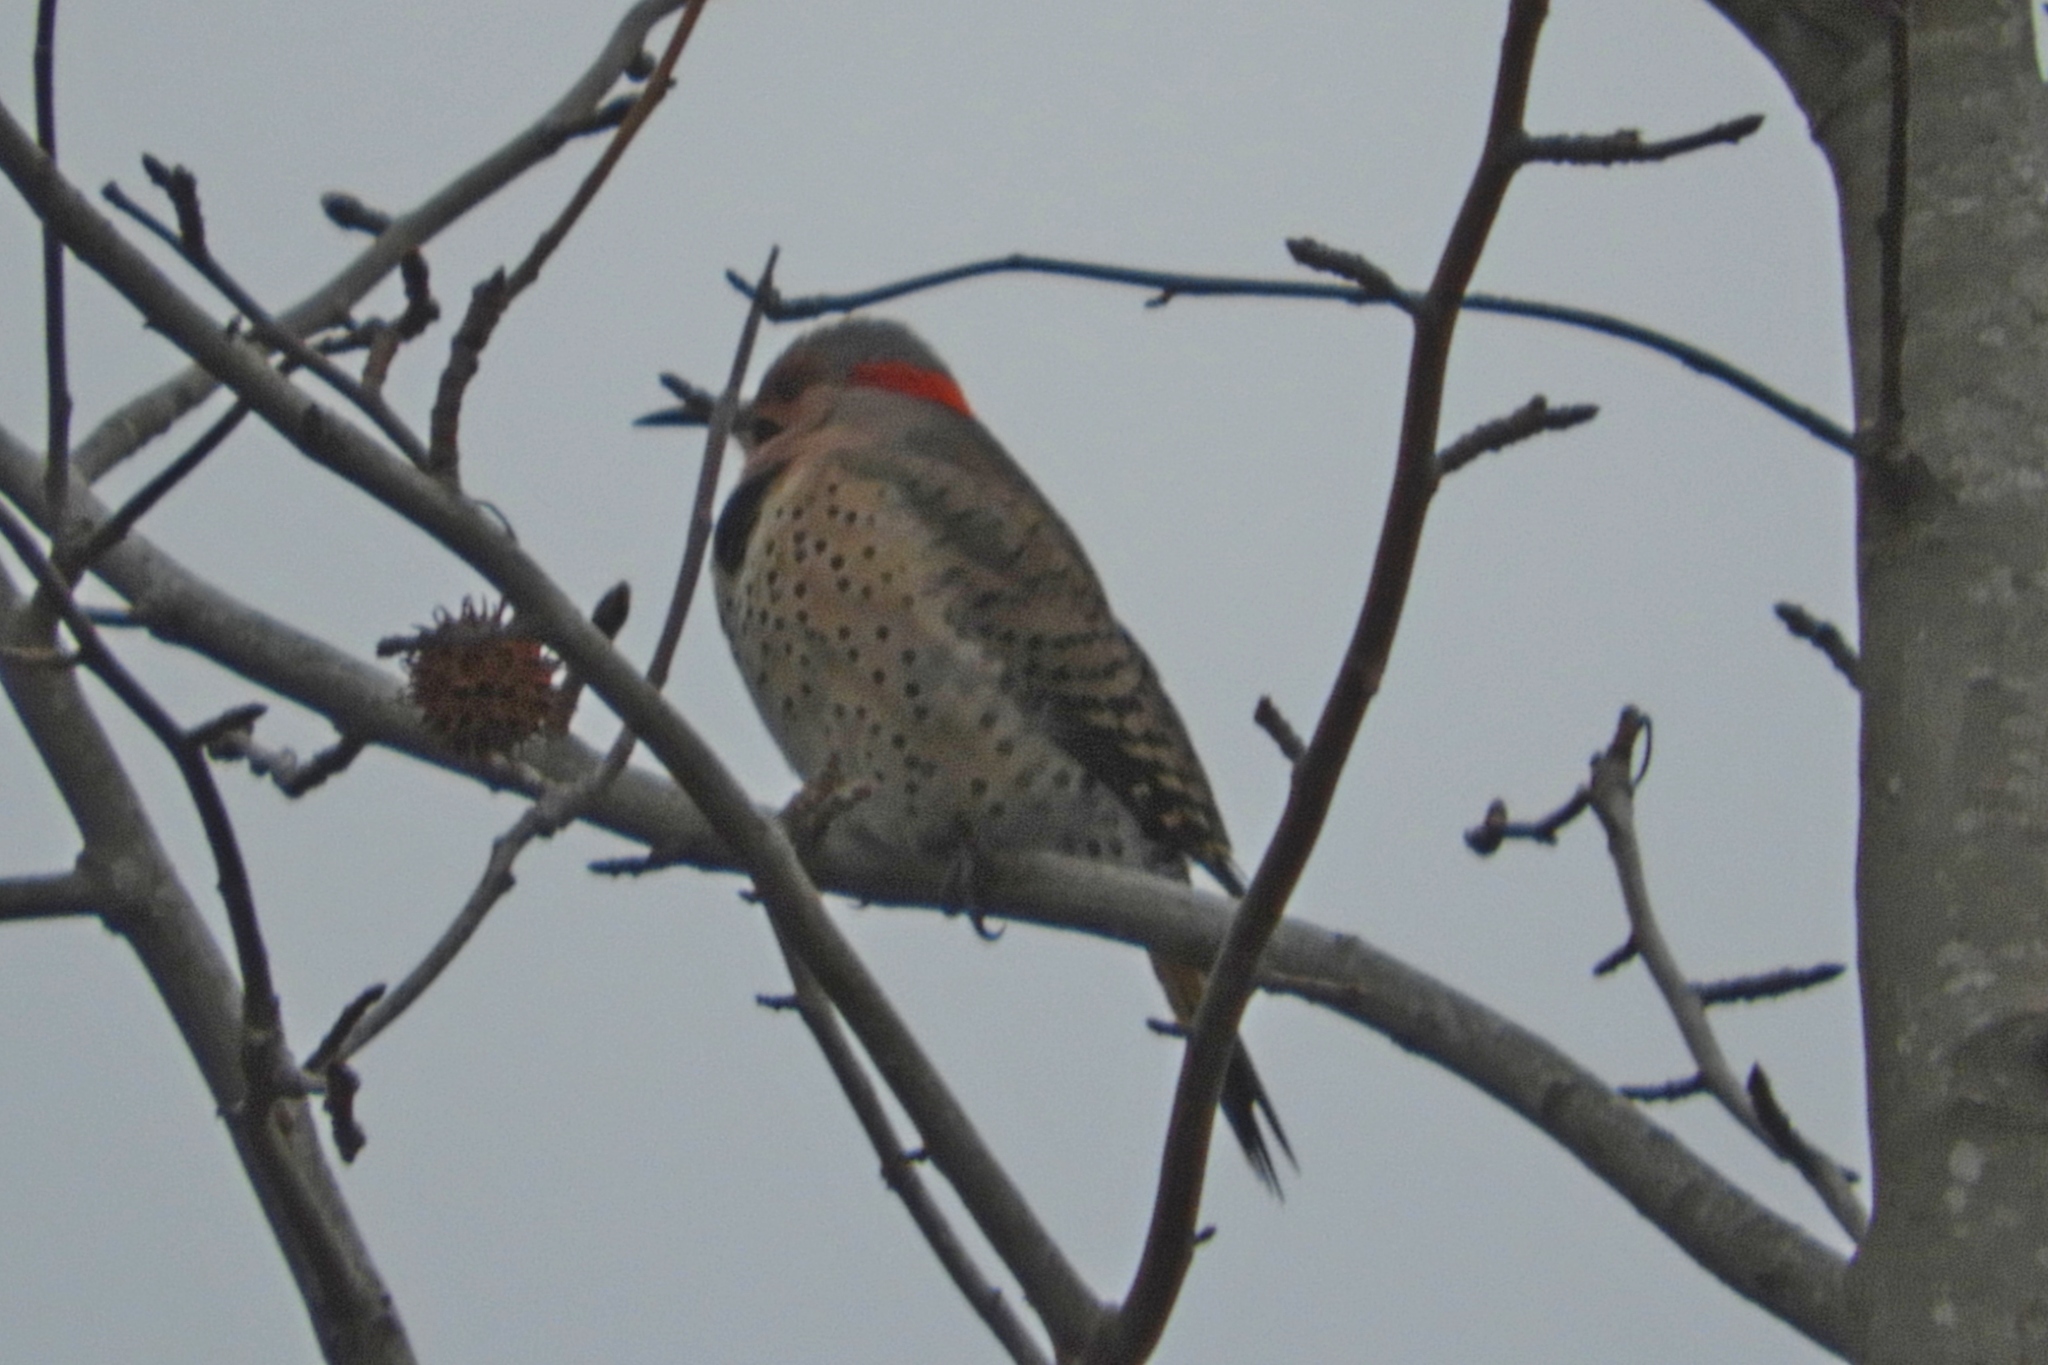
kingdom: Animalia
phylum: Chordata
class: Aves
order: Piciformes
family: Picidae
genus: Colaptes
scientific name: Colaptes auratus
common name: Northern flicker
